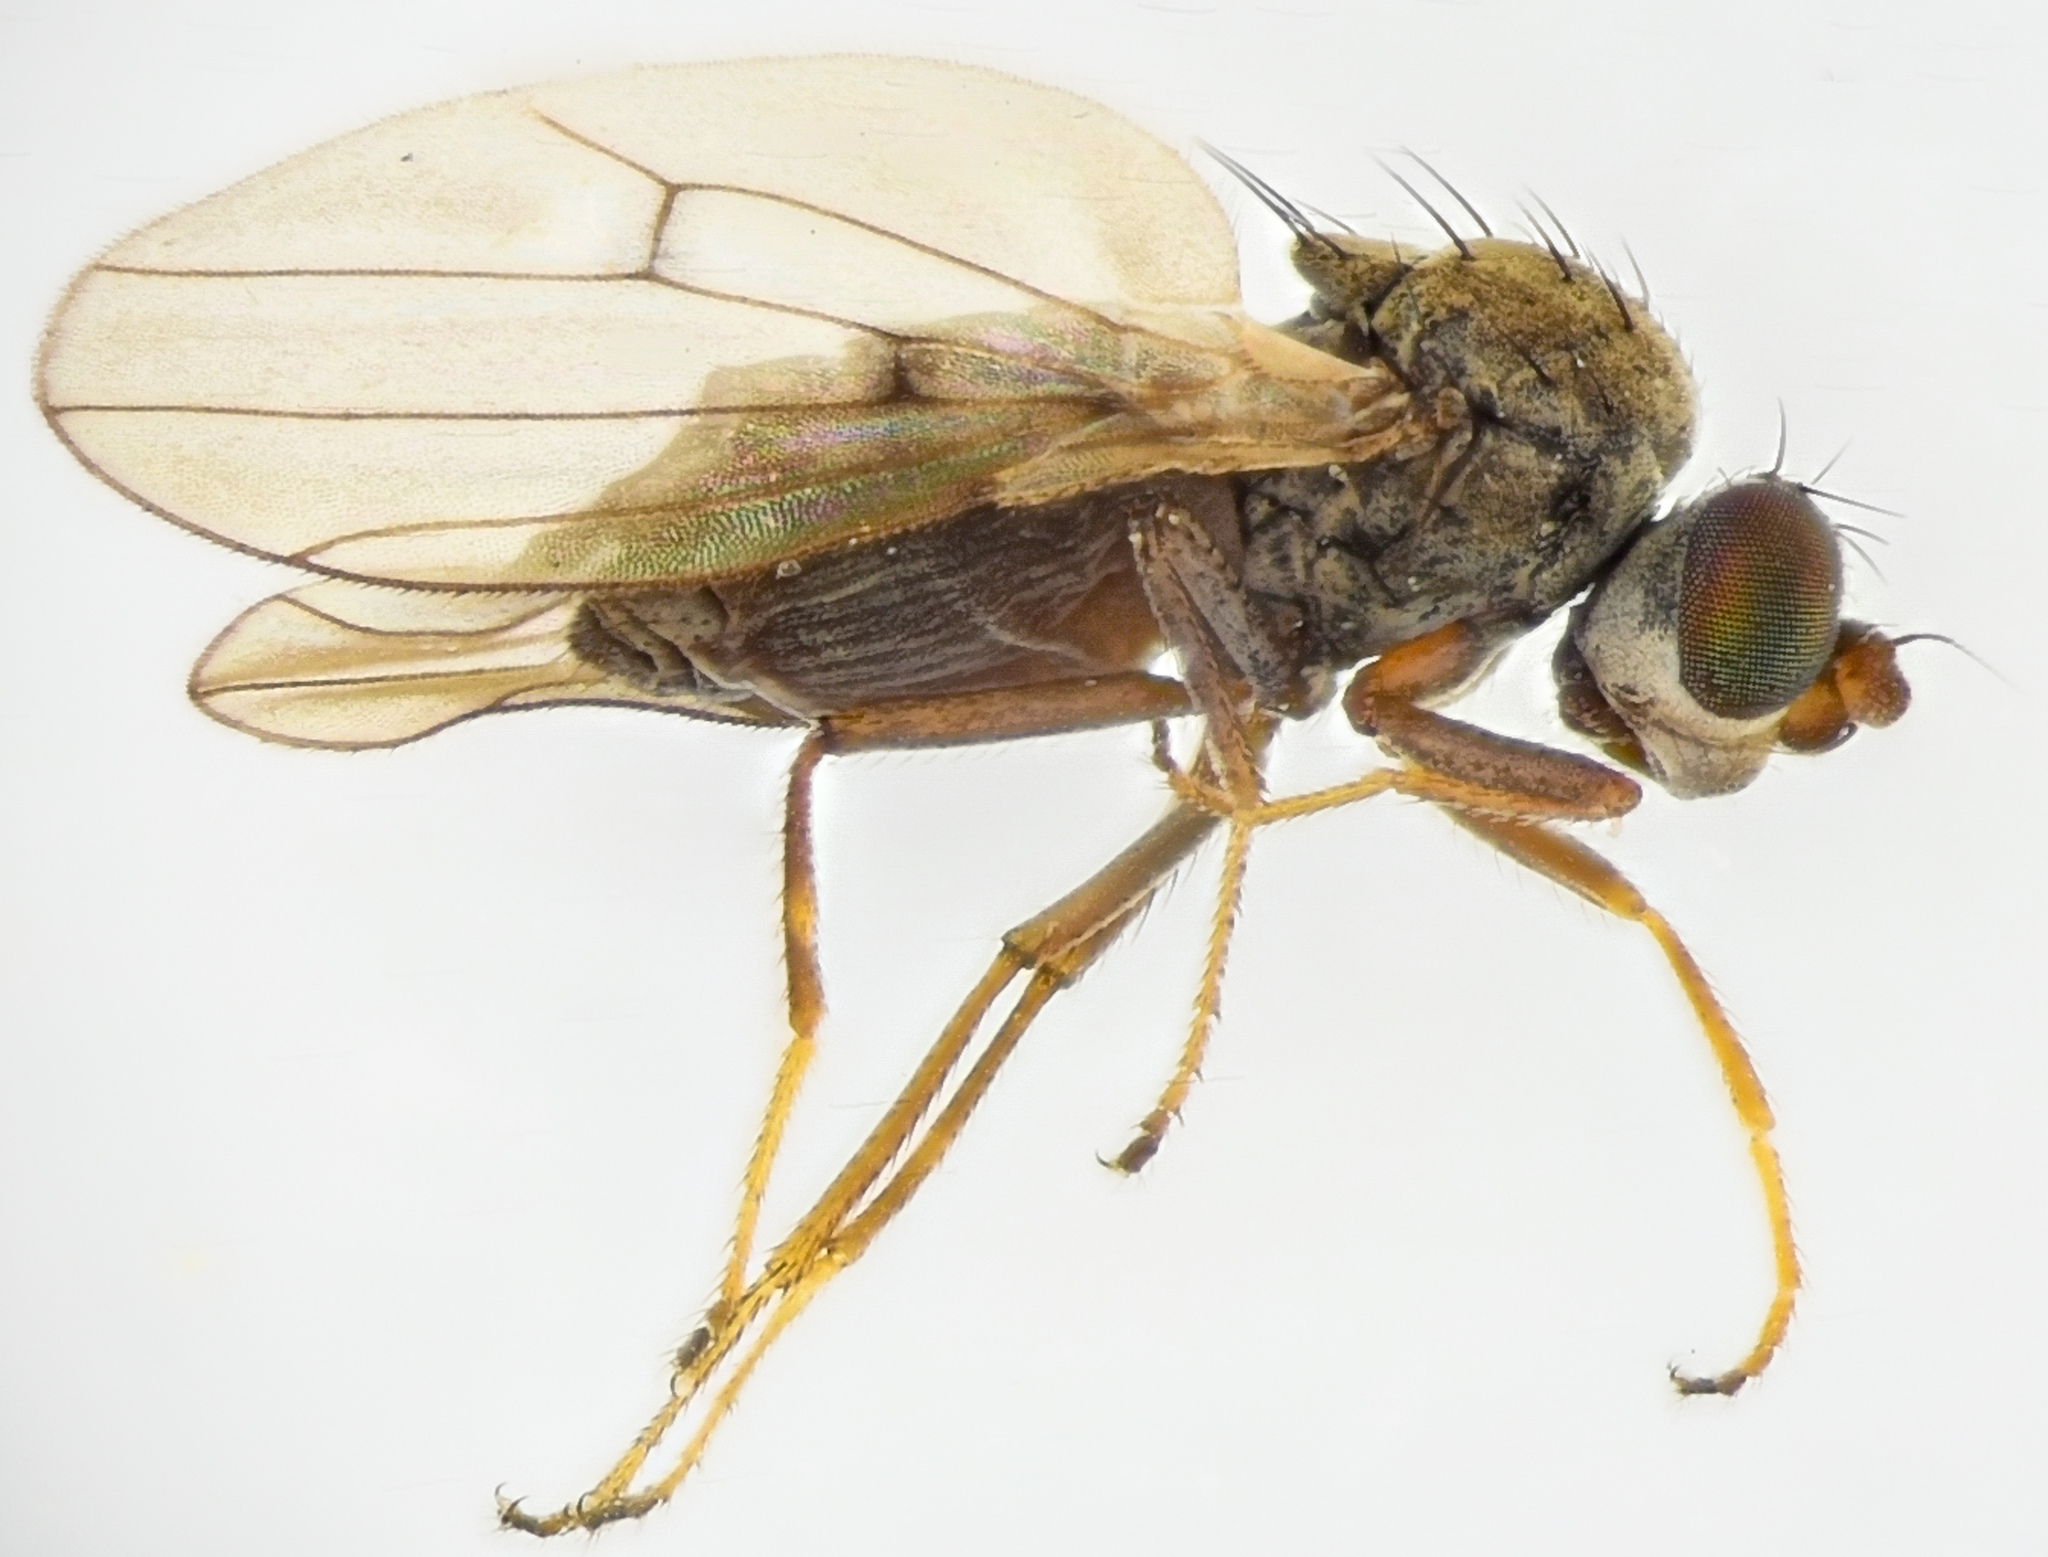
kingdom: Animalia
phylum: Arthropoda
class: Insecta
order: Diptera
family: Ephydridae
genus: Philygria
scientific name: Philygria debilis
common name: Brine fly
